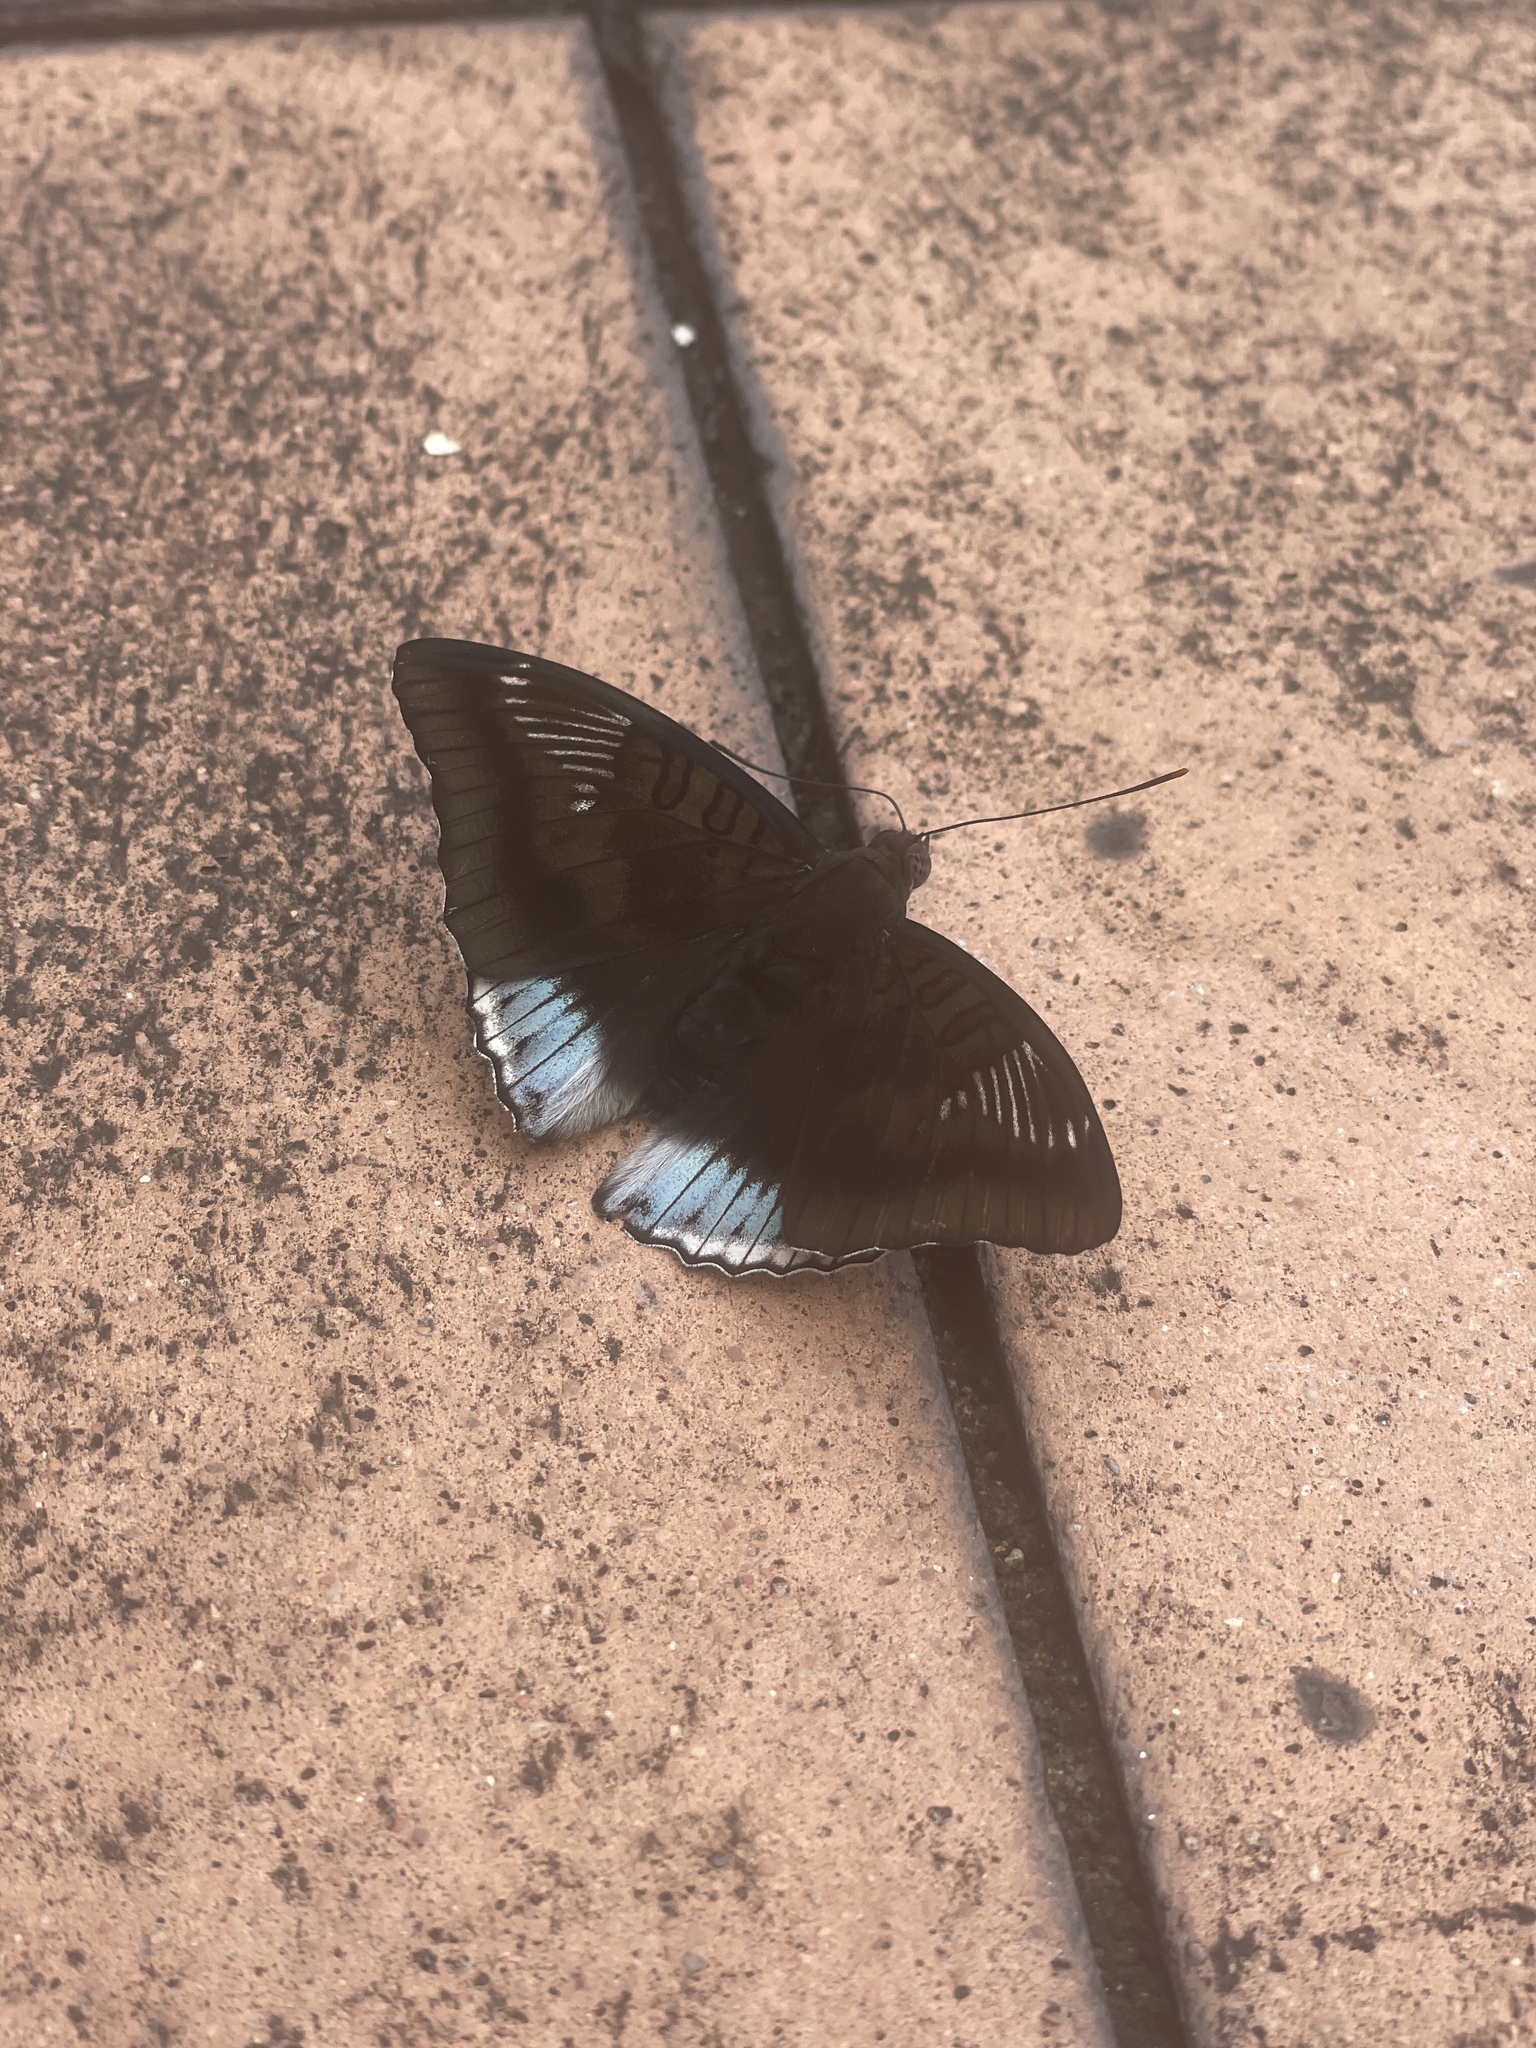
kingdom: Animalia
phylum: Arthropoda
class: Insecta
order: Lepidoptera
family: Nymphalidae
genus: Euthalia
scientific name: Euthalia phemius
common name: White-edged blue baron
